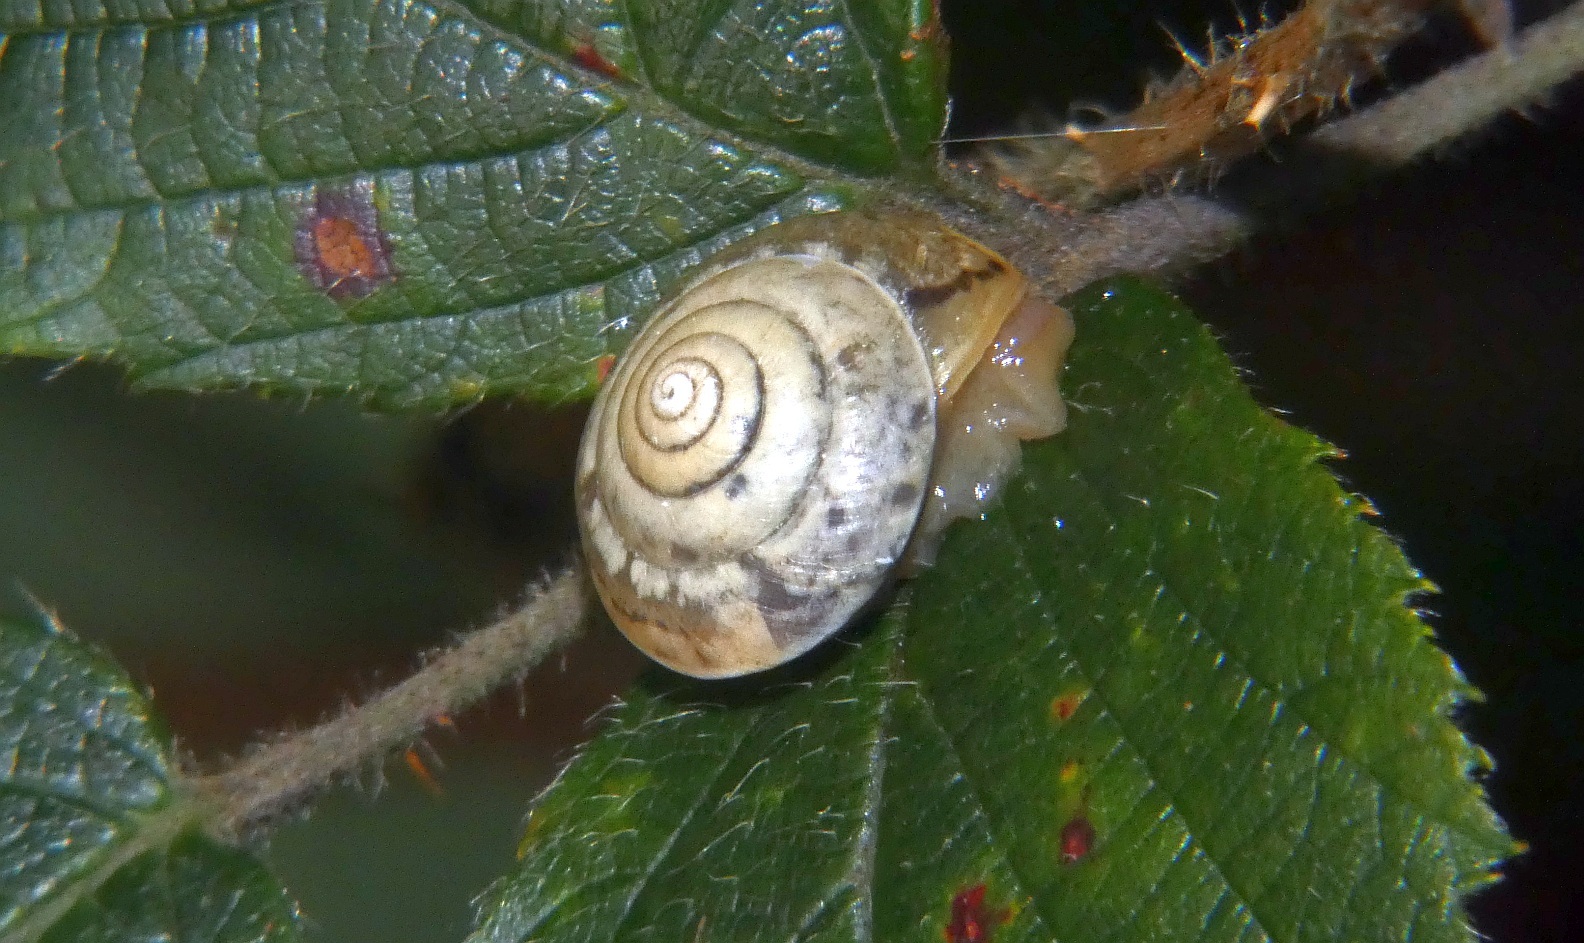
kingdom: Animalia
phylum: Mollusca
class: Gastropoda
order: Stylommatophora
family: Hygromiidae
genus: Hygromia
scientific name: Hygromia cinctella
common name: Girdled snail
